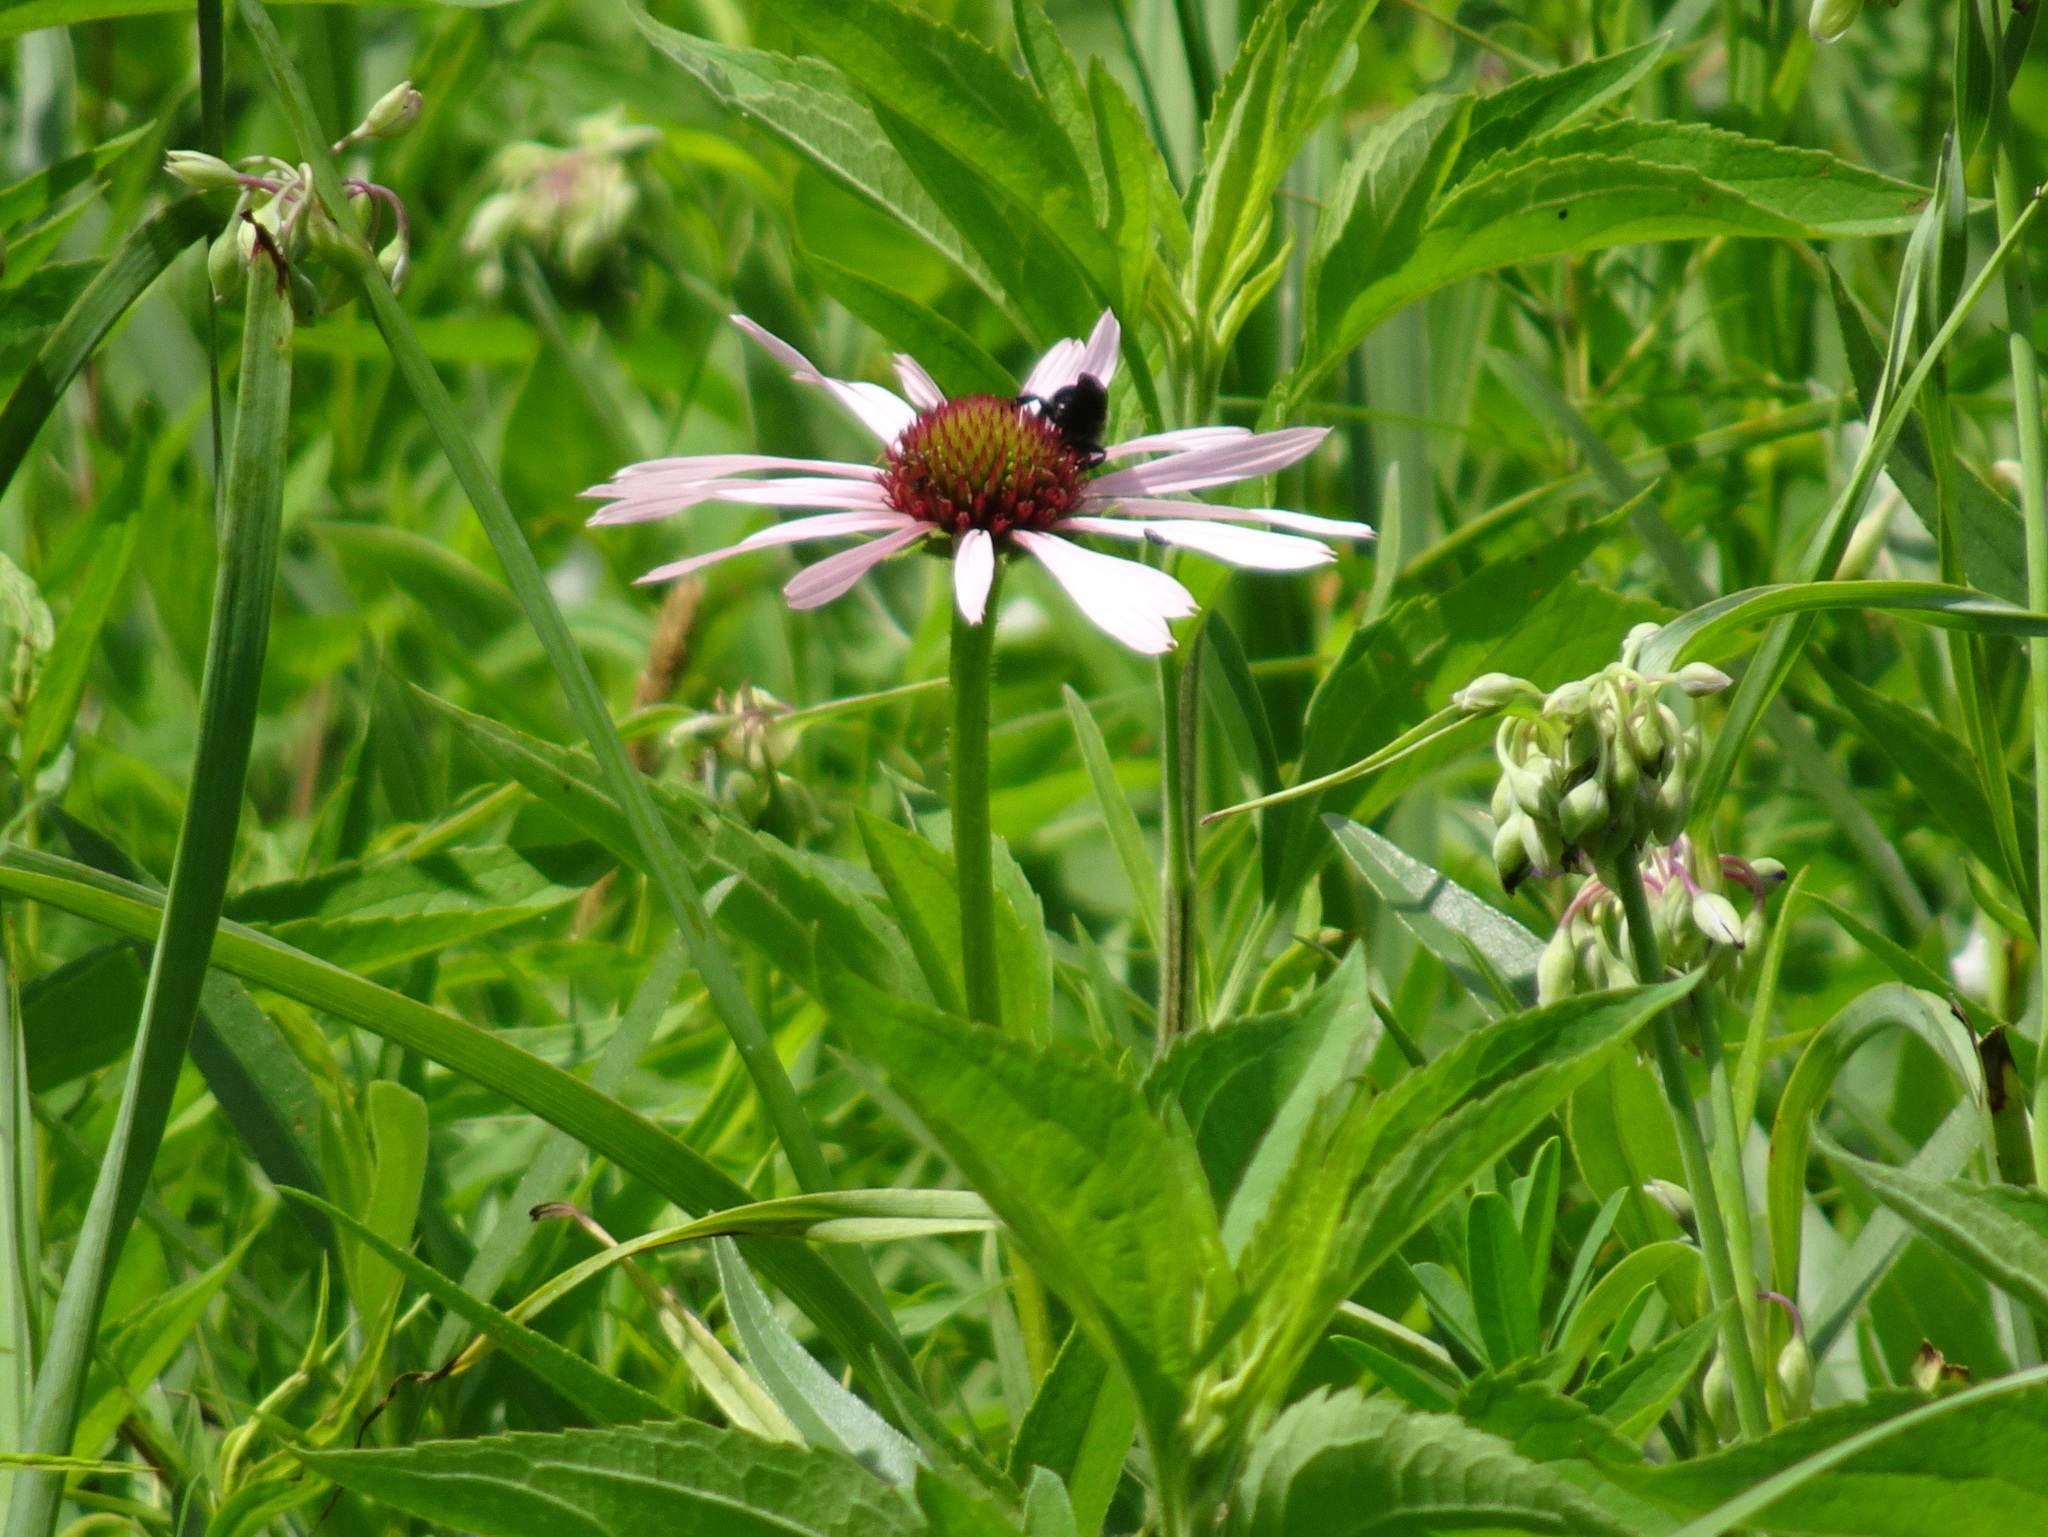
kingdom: Plantae
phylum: Tracheophyta
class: Magnoliopsida
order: Asterales
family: Asteraceae
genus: Echinacea
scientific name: Echinacea purpurea
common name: Broad-leaved purple coneflower
